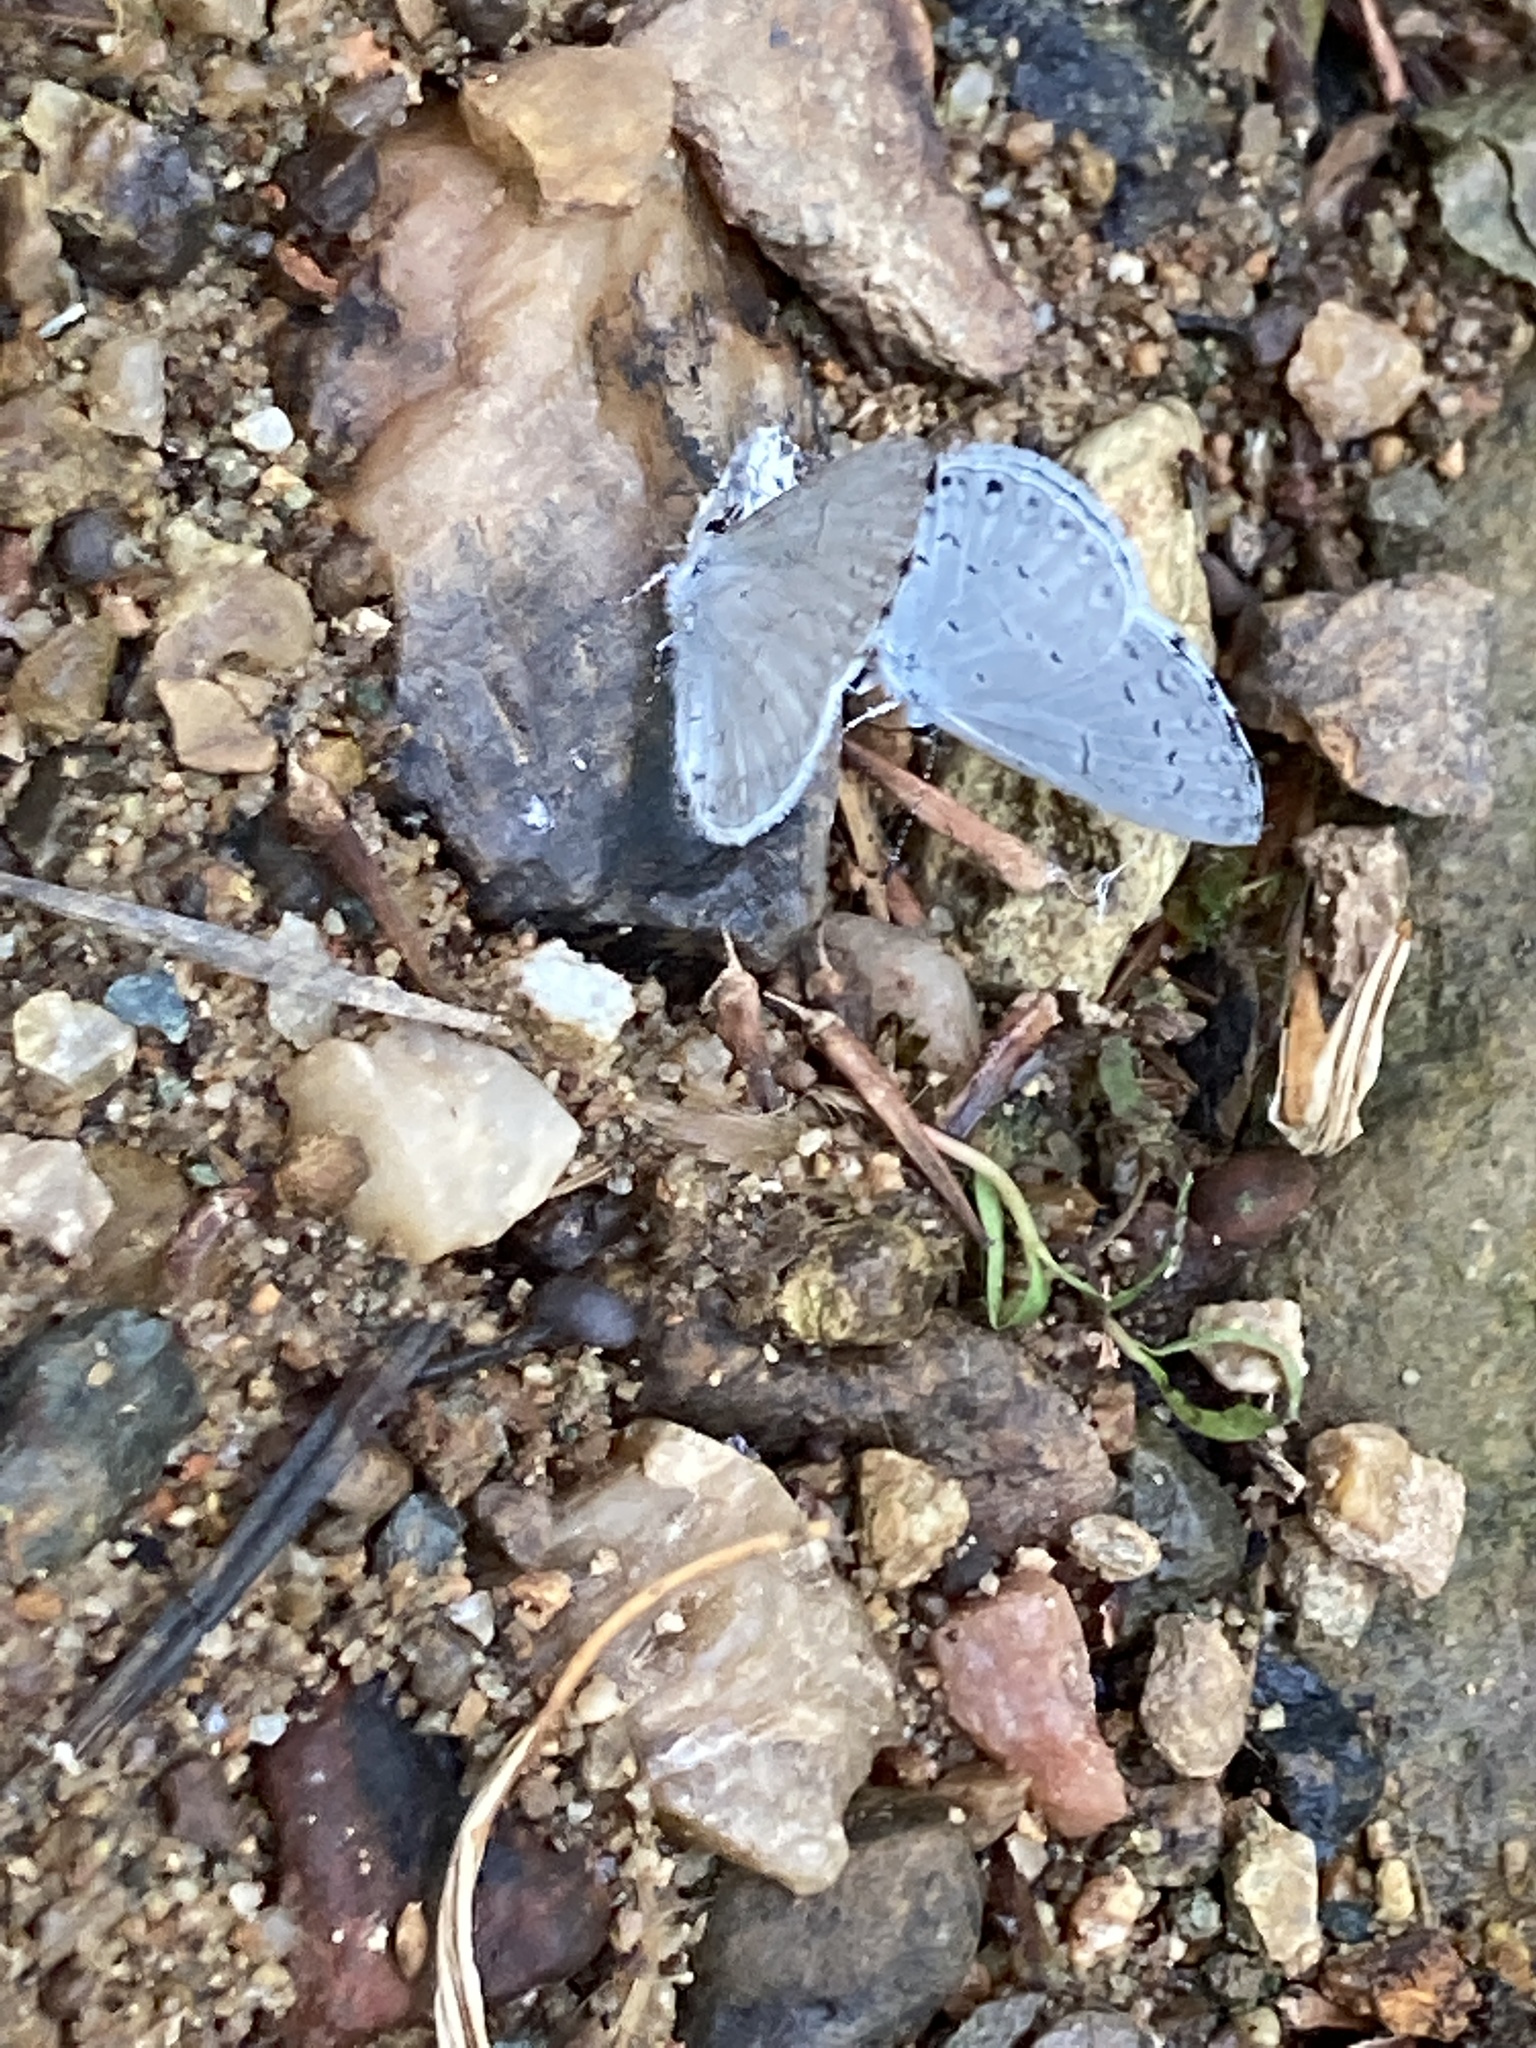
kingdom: Animalia
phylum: Arthropoda
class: Insecta
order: Lepidoptera
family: Lycaenidae
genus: Cyaniris
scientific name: Cyaniris neglecta
